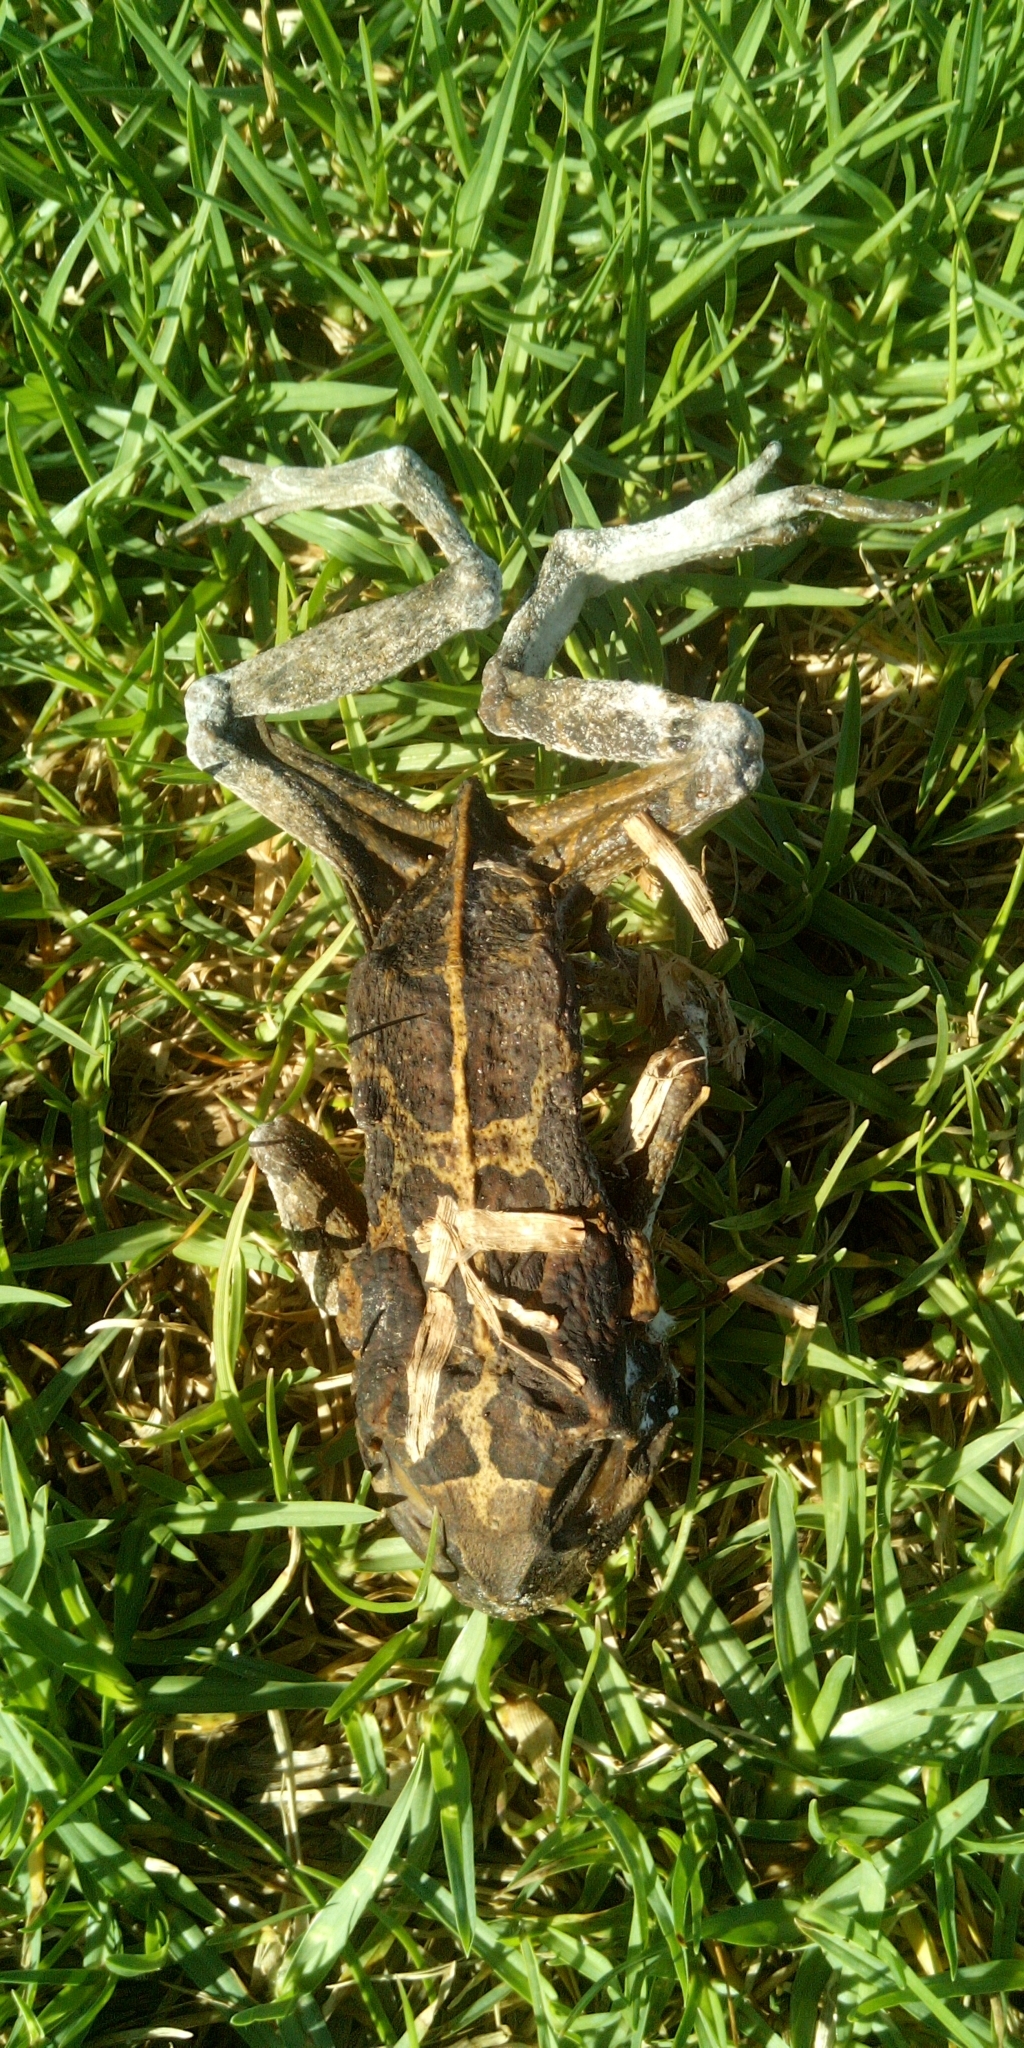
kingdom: Animalia
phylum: Chordata
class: Amphibia
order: Anura
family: Bufonidae
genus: Sclerophrys
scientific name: Sclerophrys pantherina
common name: Panther toad
